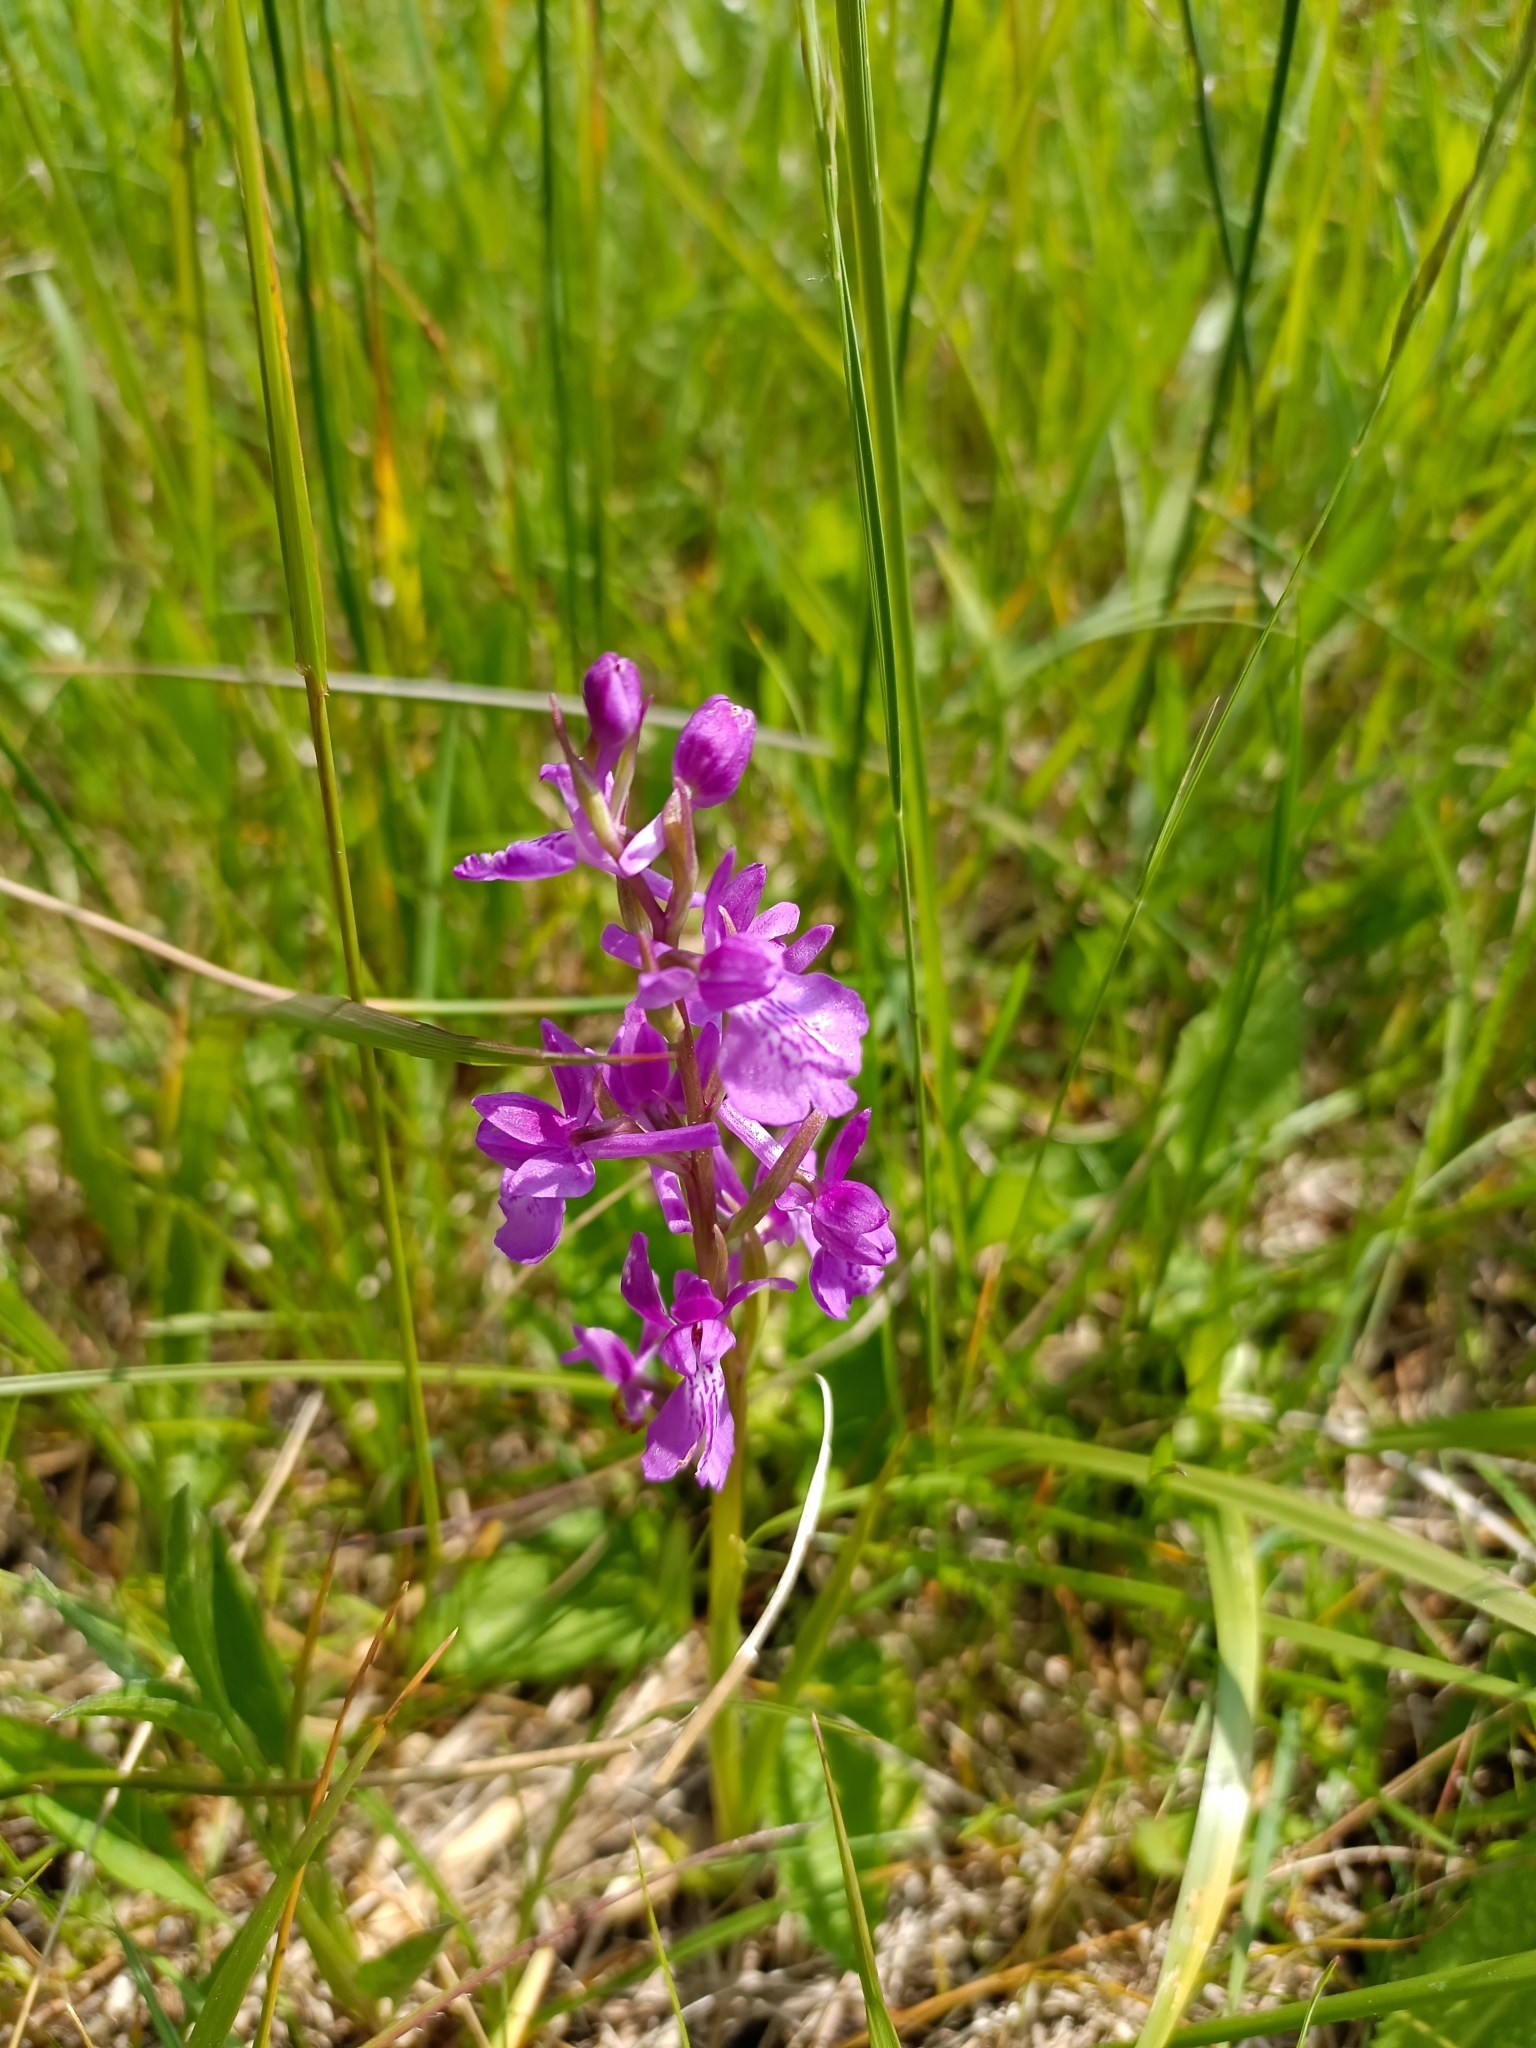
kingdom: Plantae
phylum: Tracheophyta
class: Liliopsida
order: Asparagales
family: Orchidaceae
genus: Anacamptis
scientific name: Anacamptis palustris
